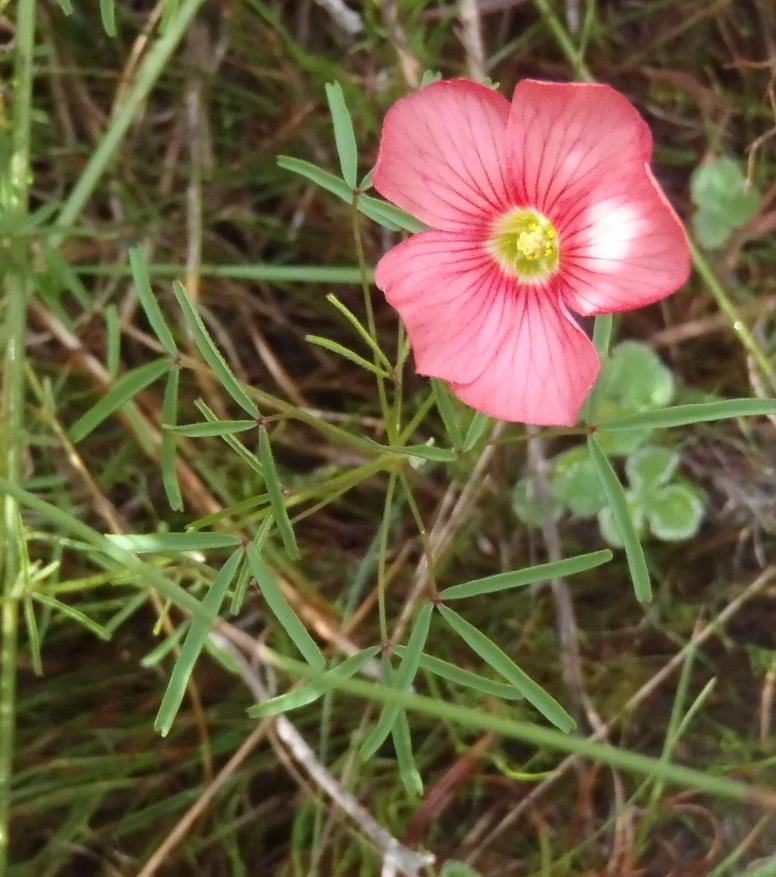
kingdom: Plantae
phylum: Tracheophyta
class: Magnoliopsida
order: Oxalidales
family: Oxalidaceae
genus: Oxalis
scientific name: Oxalis pendulifolia
